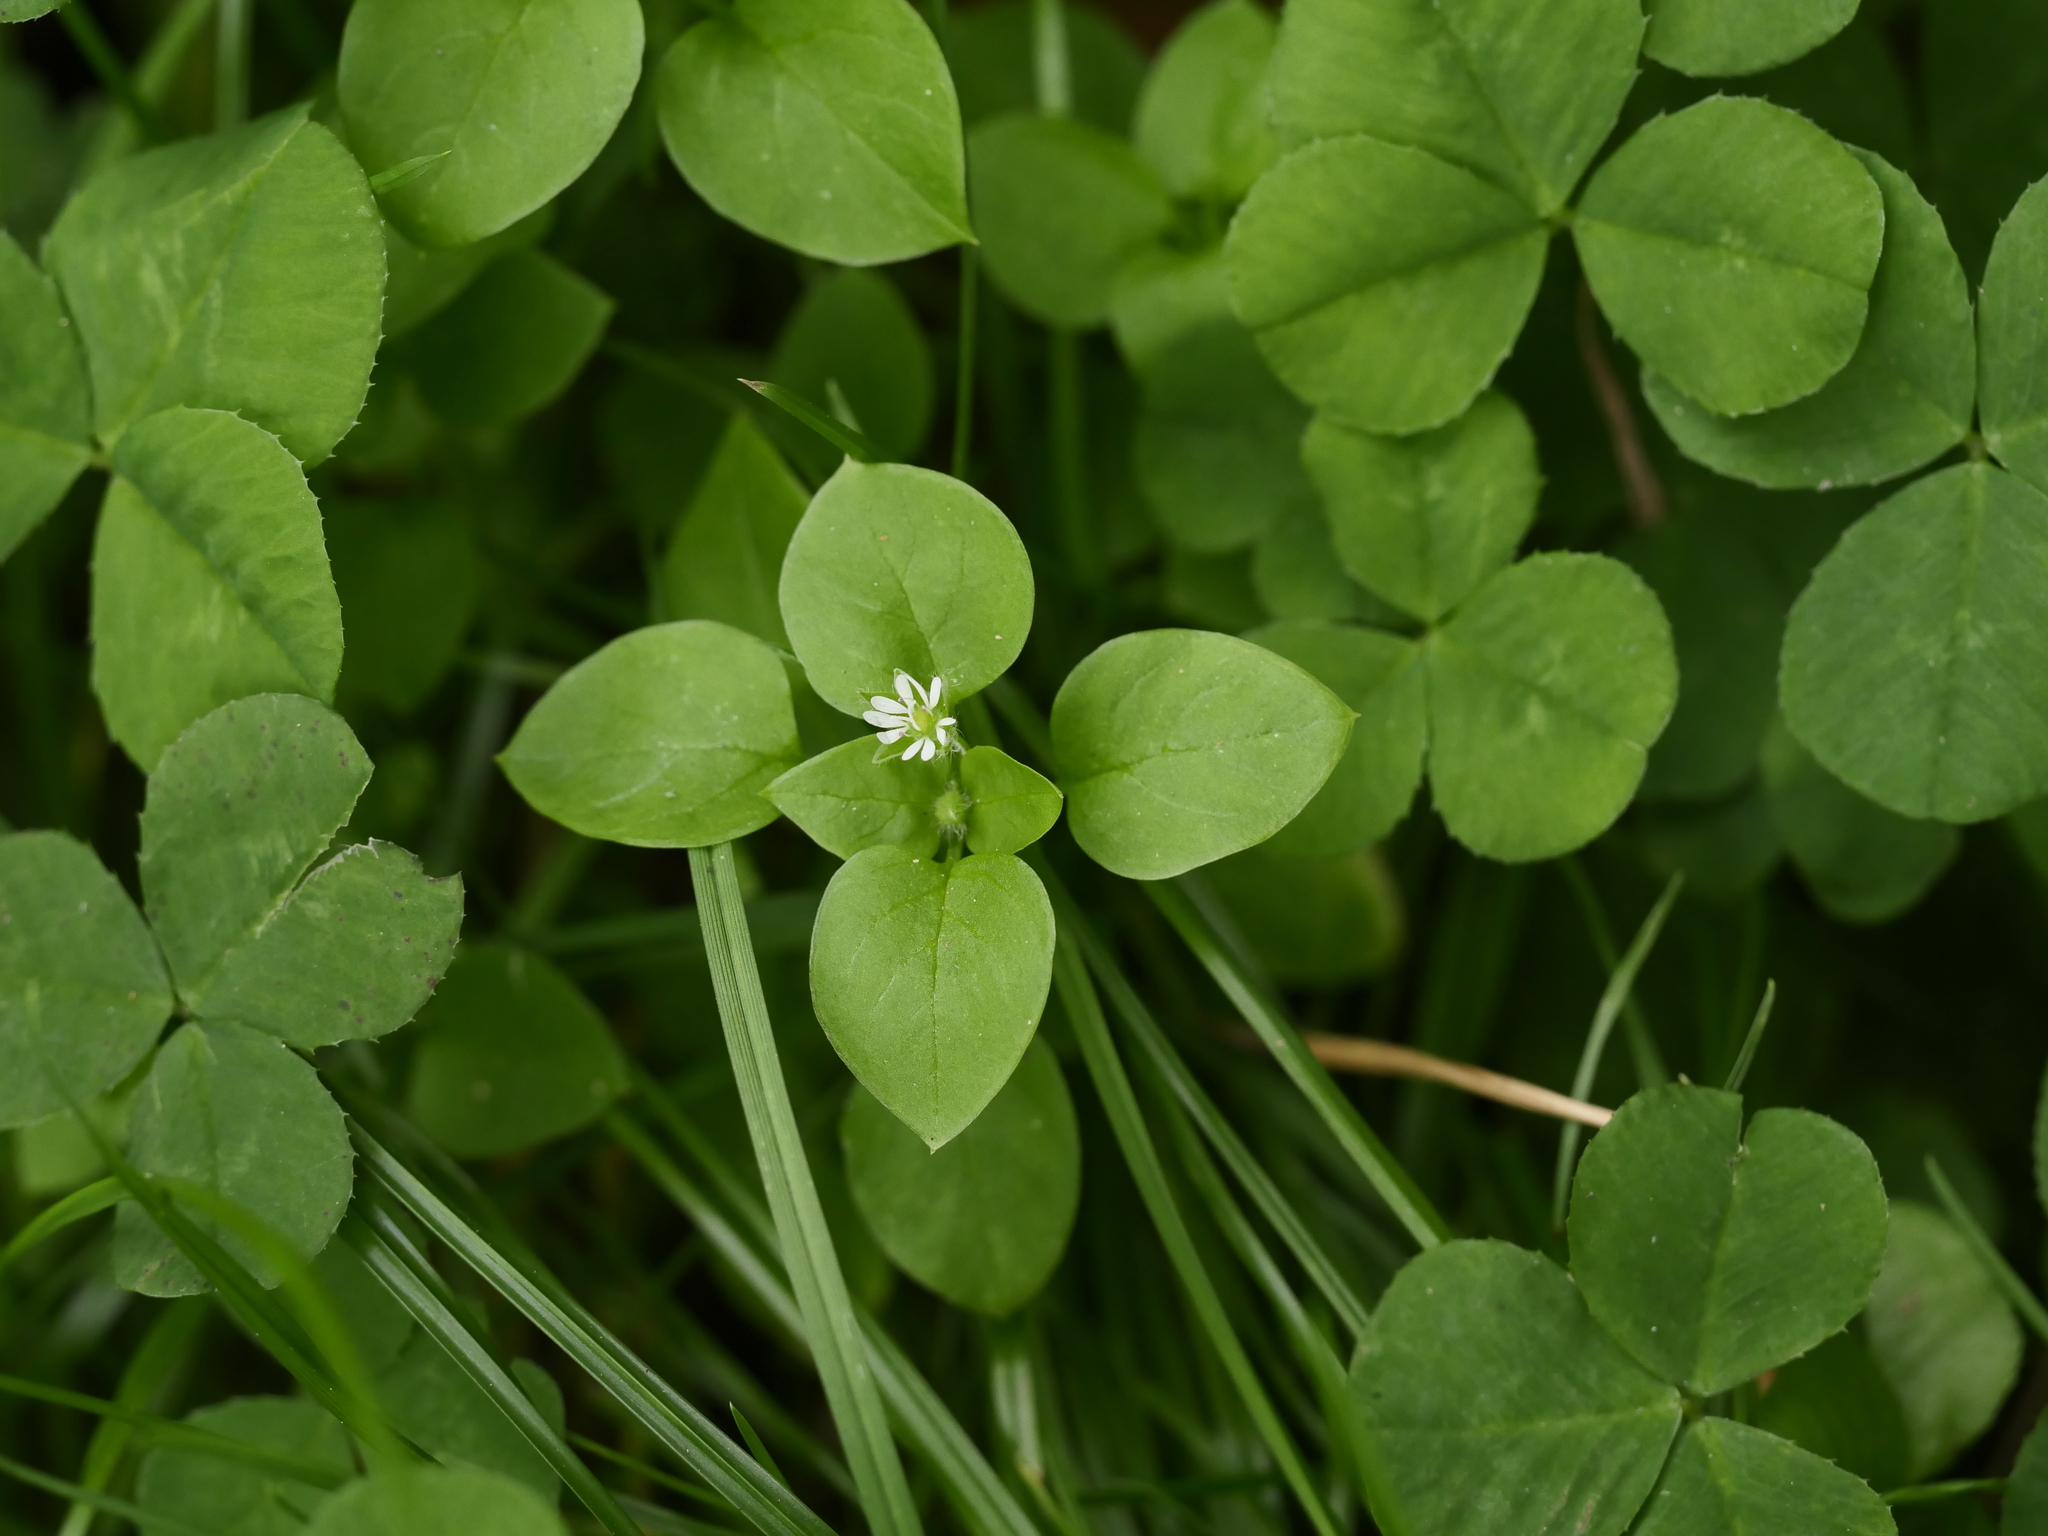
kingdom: Plantae
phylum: Tracheophyta
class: Magnoliopsida
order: Caryophyllales
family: Caryophyllaceae
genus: Stellaria
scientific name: Stellaria media
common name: Common chickweed
